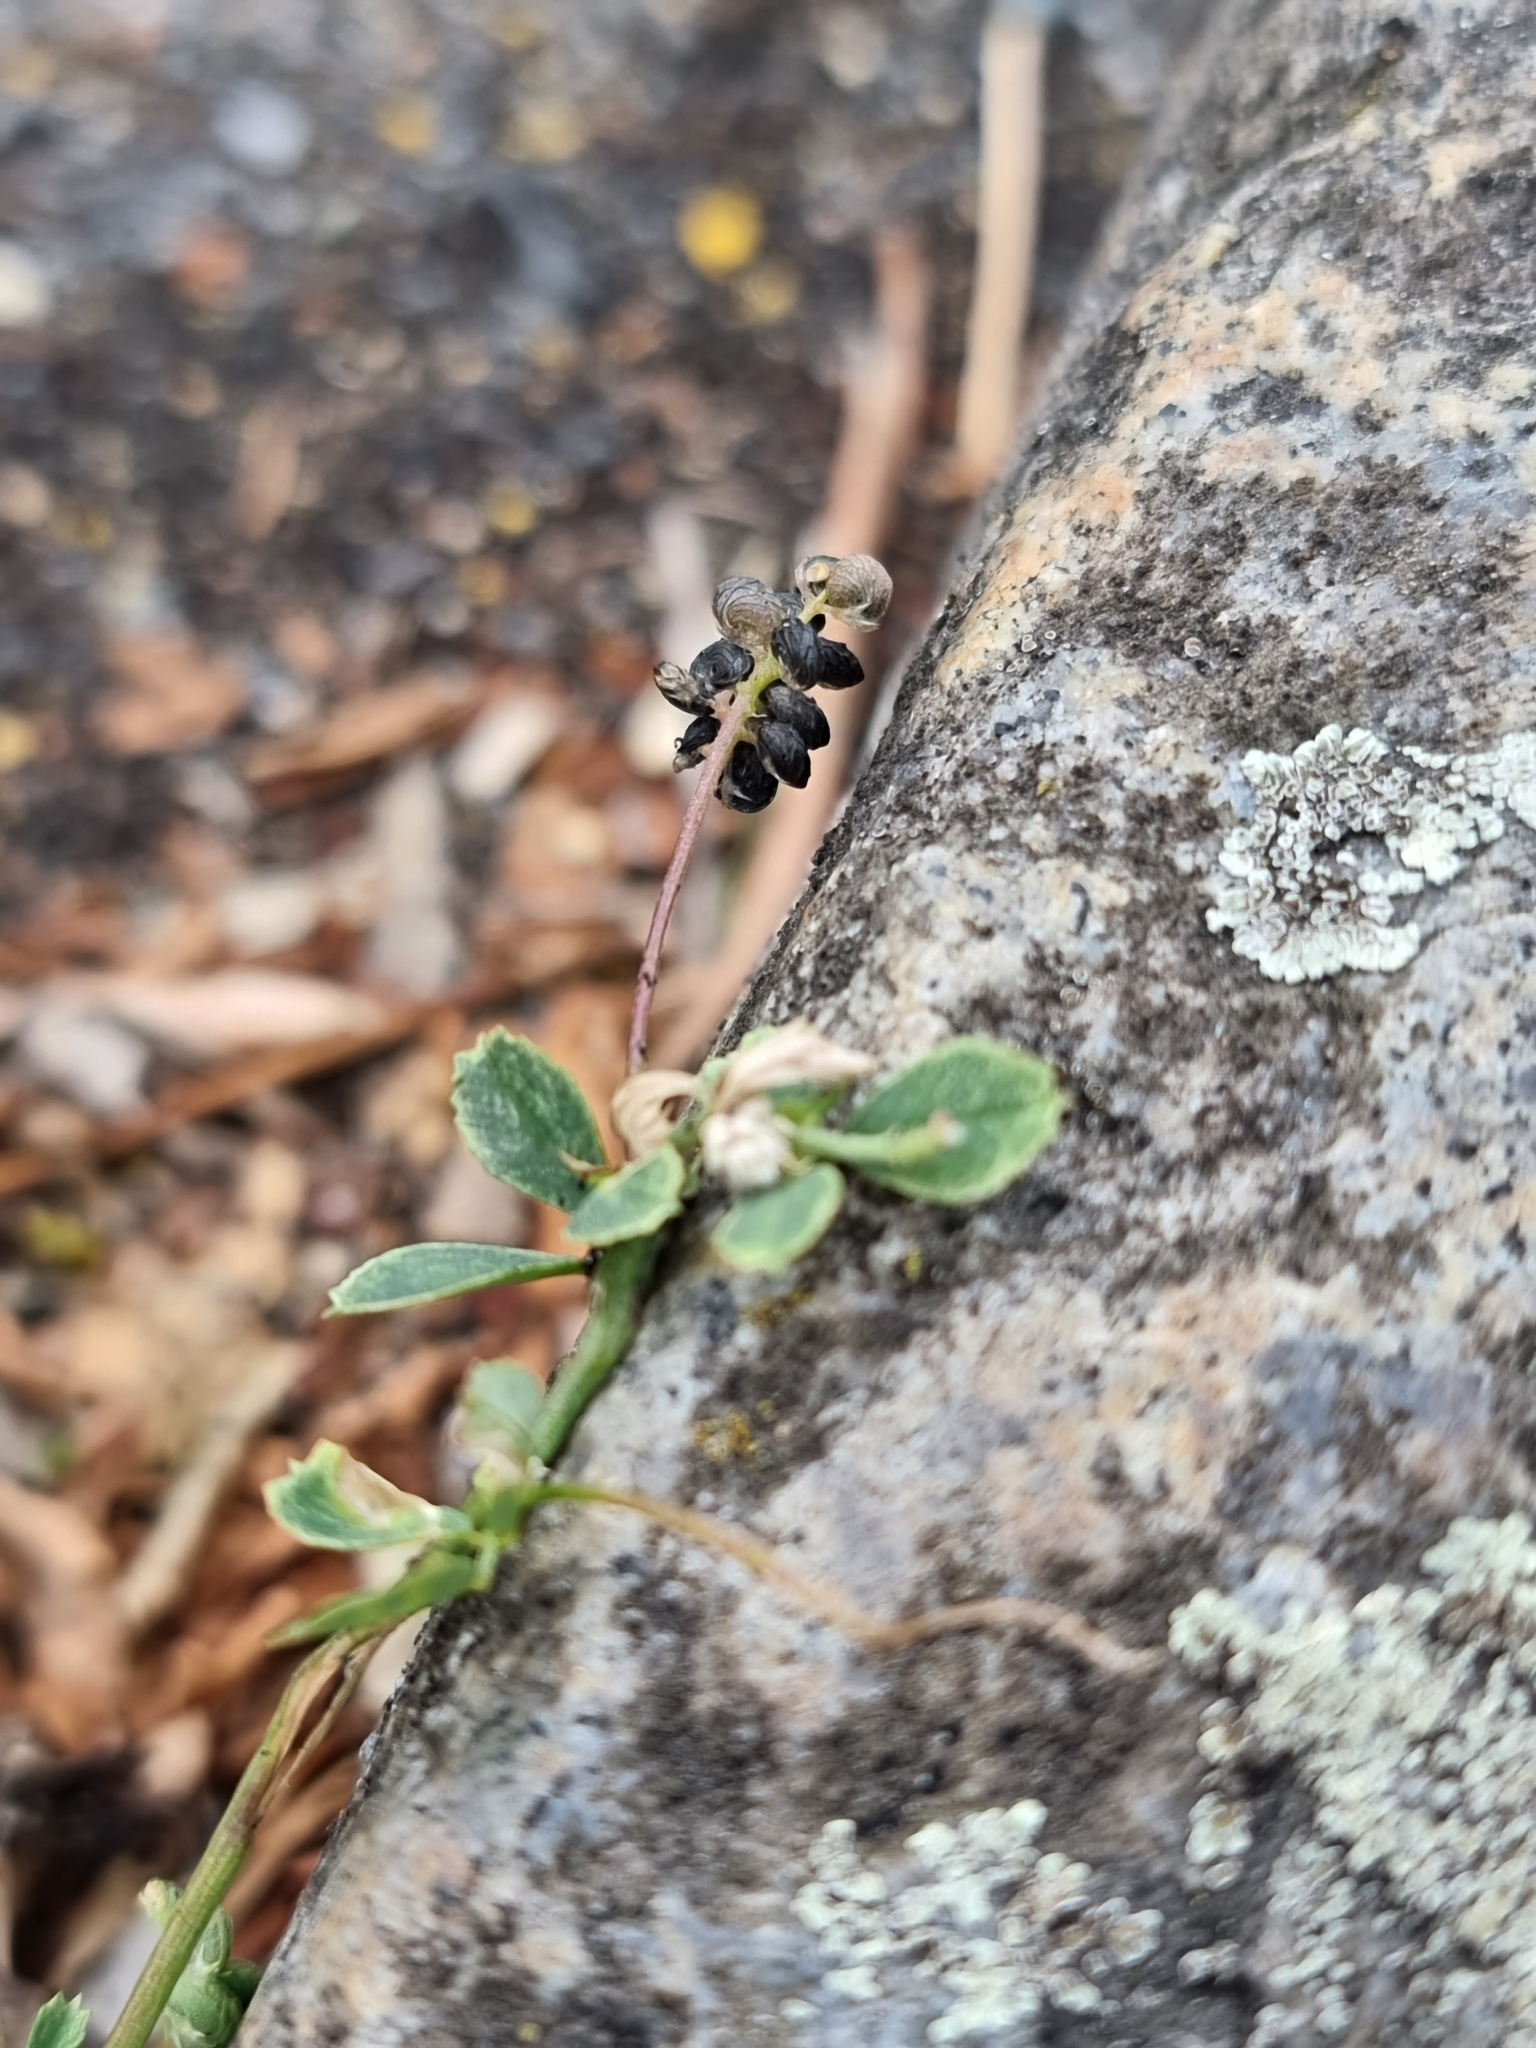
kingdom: Plantae
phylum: Tracheophyta
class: Magnoliopsida
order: Fabales
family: Fabaceae
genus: Medicago
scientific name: Medicago lupulina
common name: Black medick
